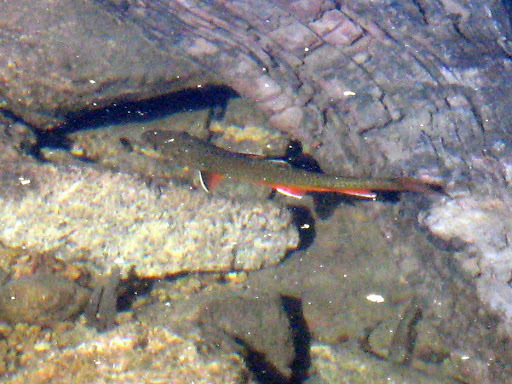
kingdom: Animalia
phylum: Chordata
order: Salmoniformes
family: Salmonidae
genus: Salvelinus
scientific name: Salvelinus fontinalis
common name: Brook trout
